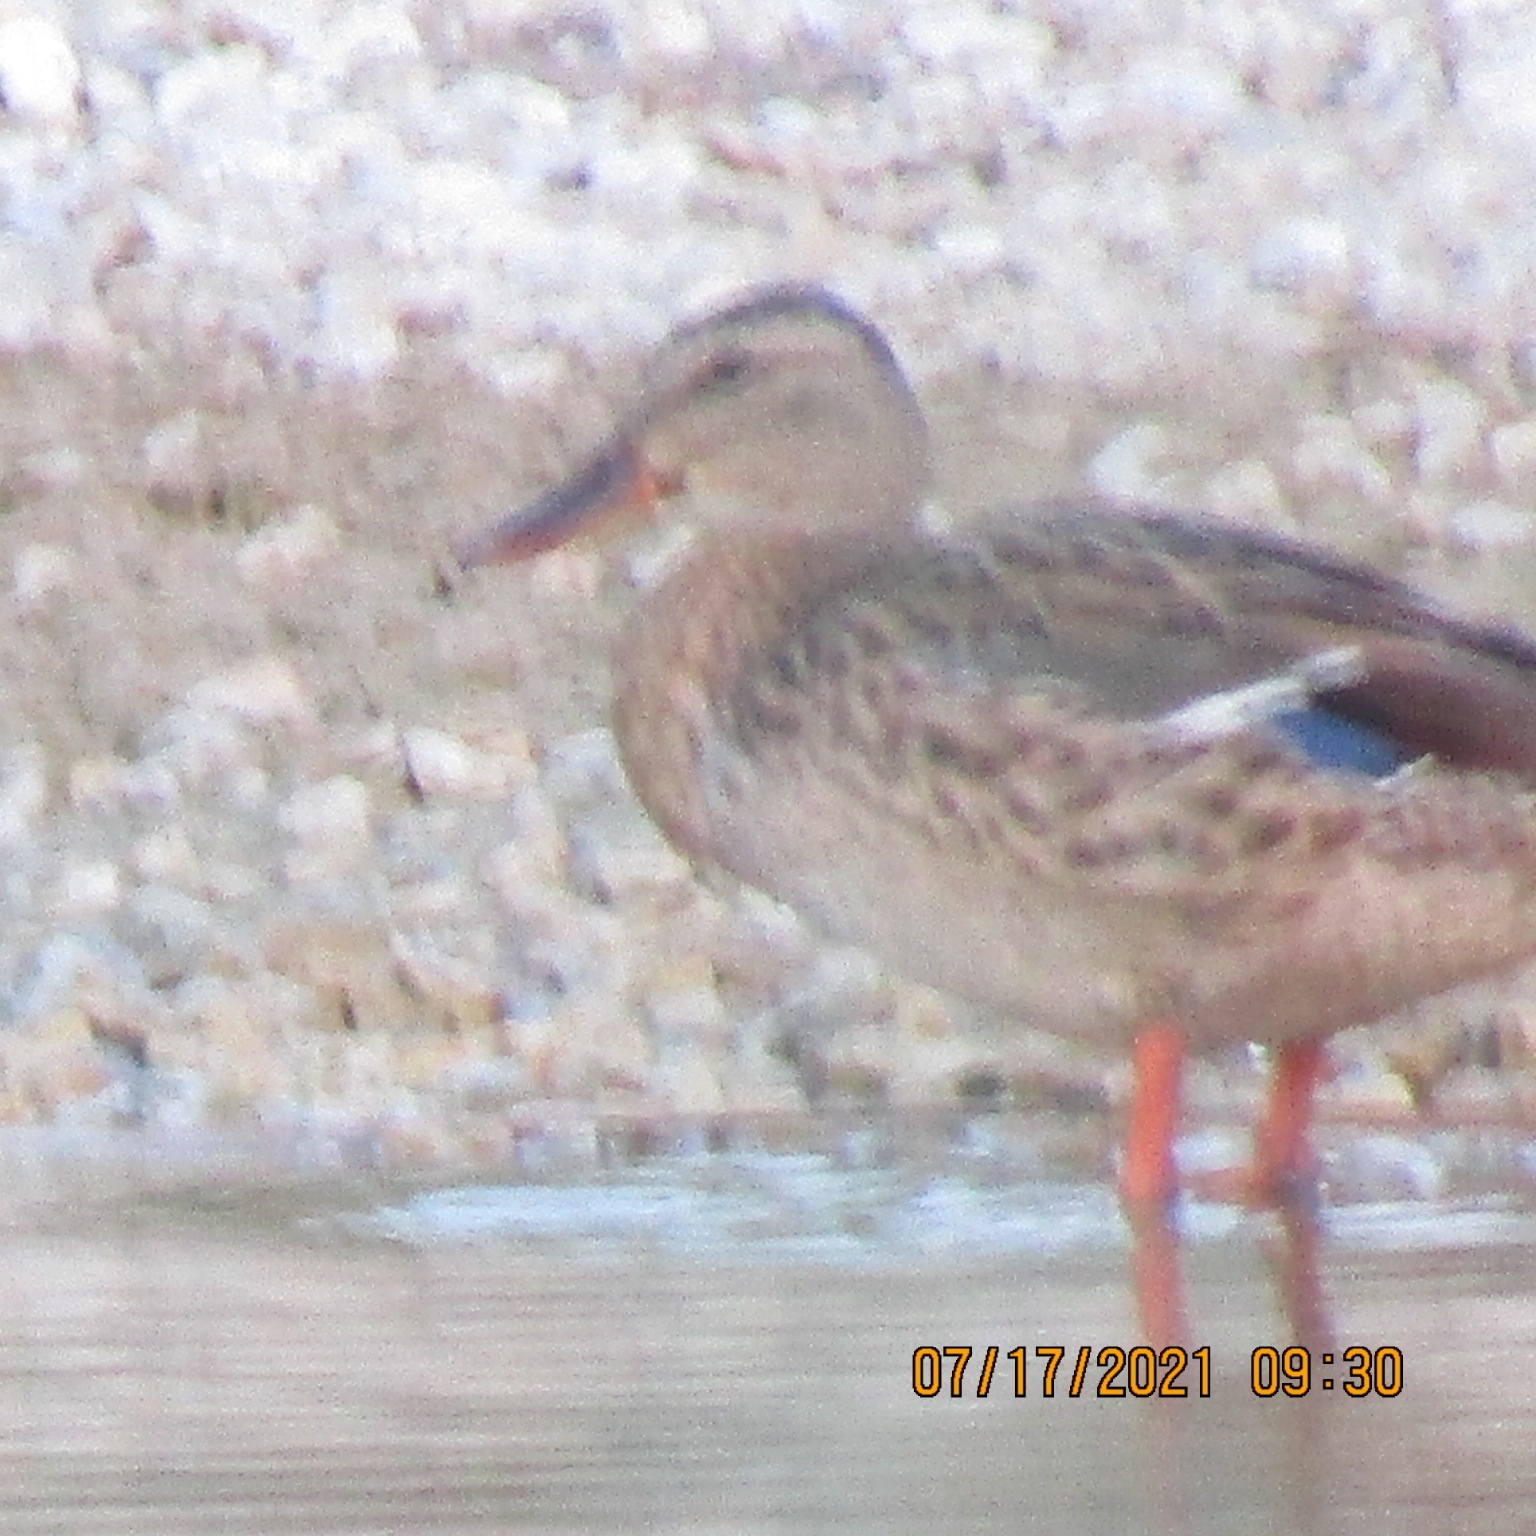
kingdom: Animalia
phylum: Chordata
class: Aves
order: Anseriformes
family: Anatidae
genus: Anas
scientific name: Anas platyrhynchos
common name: Mallard
